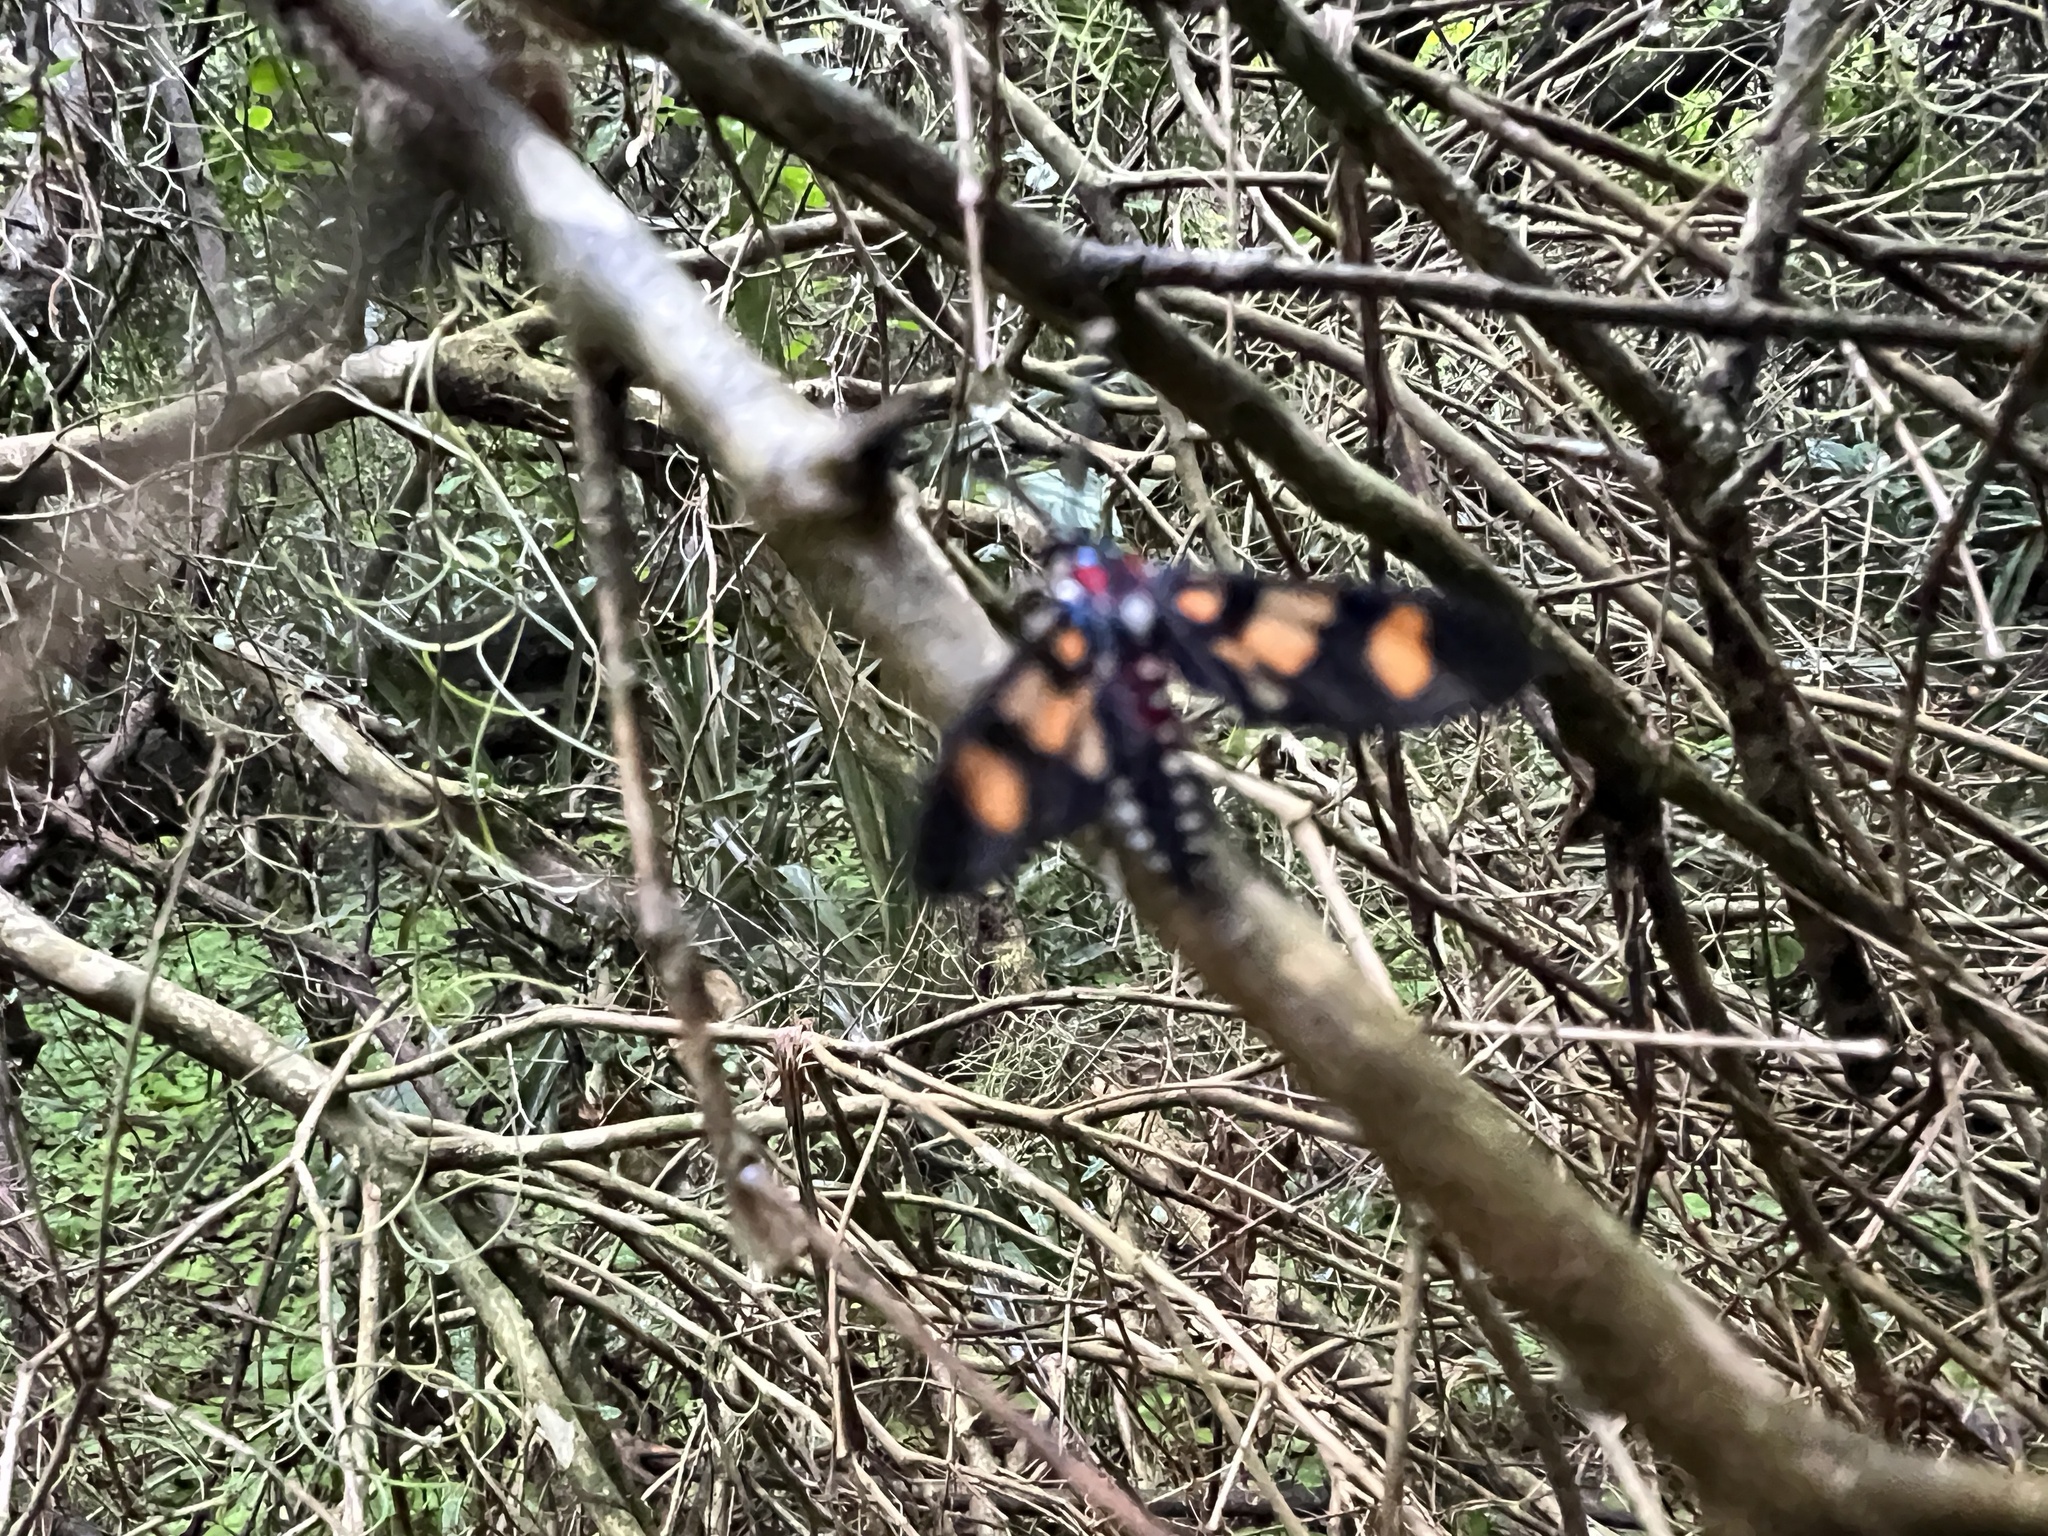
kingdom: Animalia
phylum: Arthropoda
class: Insecta
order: Lepidoptera
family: Erebidae
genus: Eurata
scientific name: Eurata histrio
